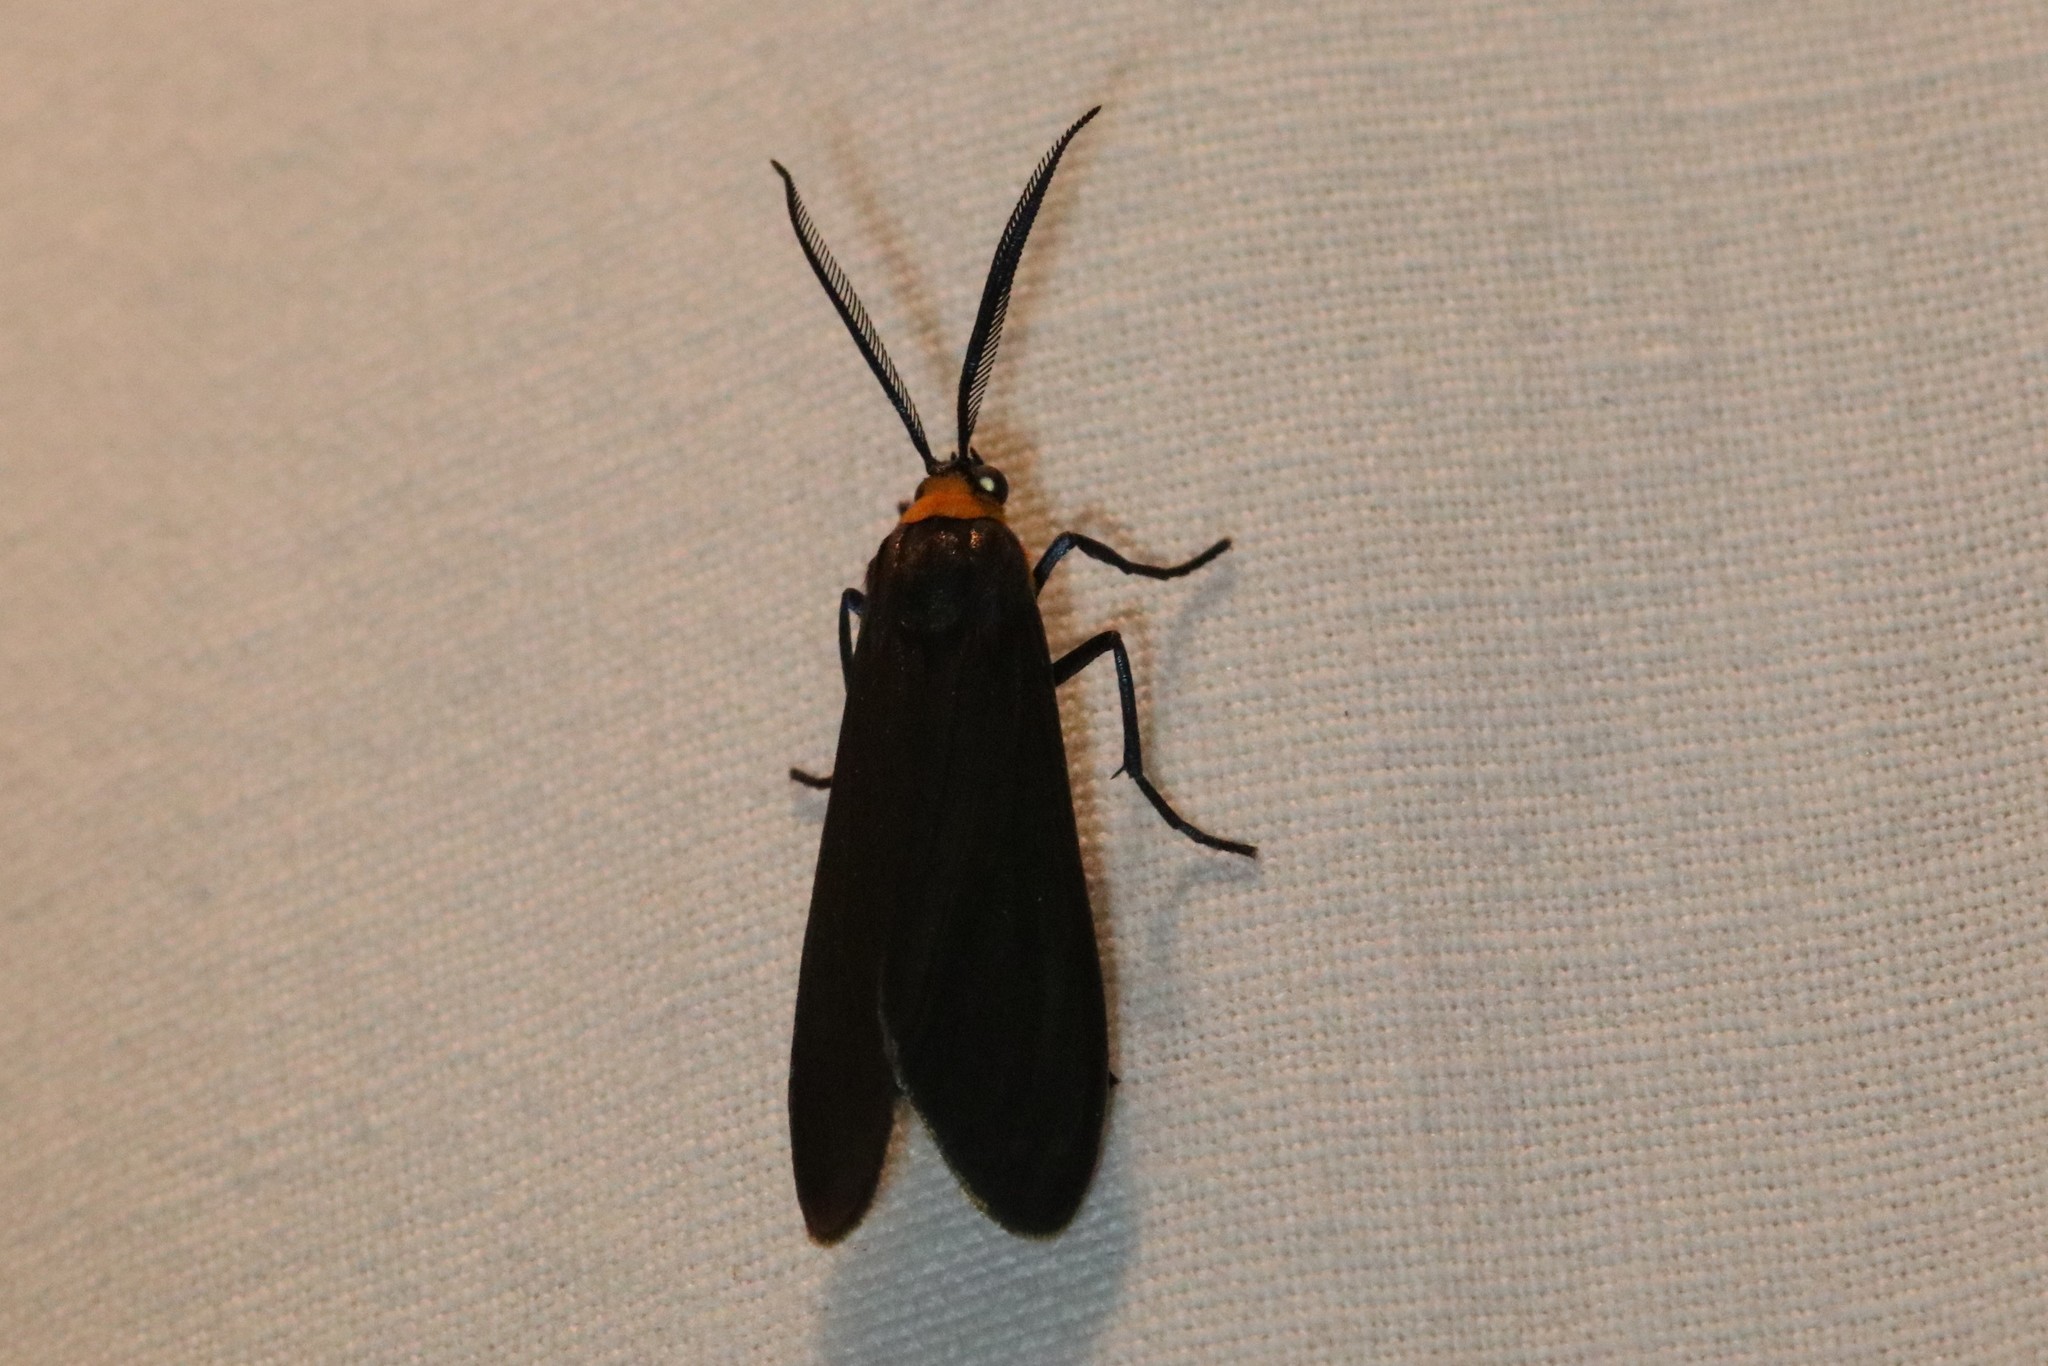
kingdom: Animalia
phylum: Arthropoda
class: Insecta
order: Lepidoptera
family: Erebidae
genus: Cisseps
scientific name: Cisseps fulvicollis
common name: Yellow-collared scape moth
